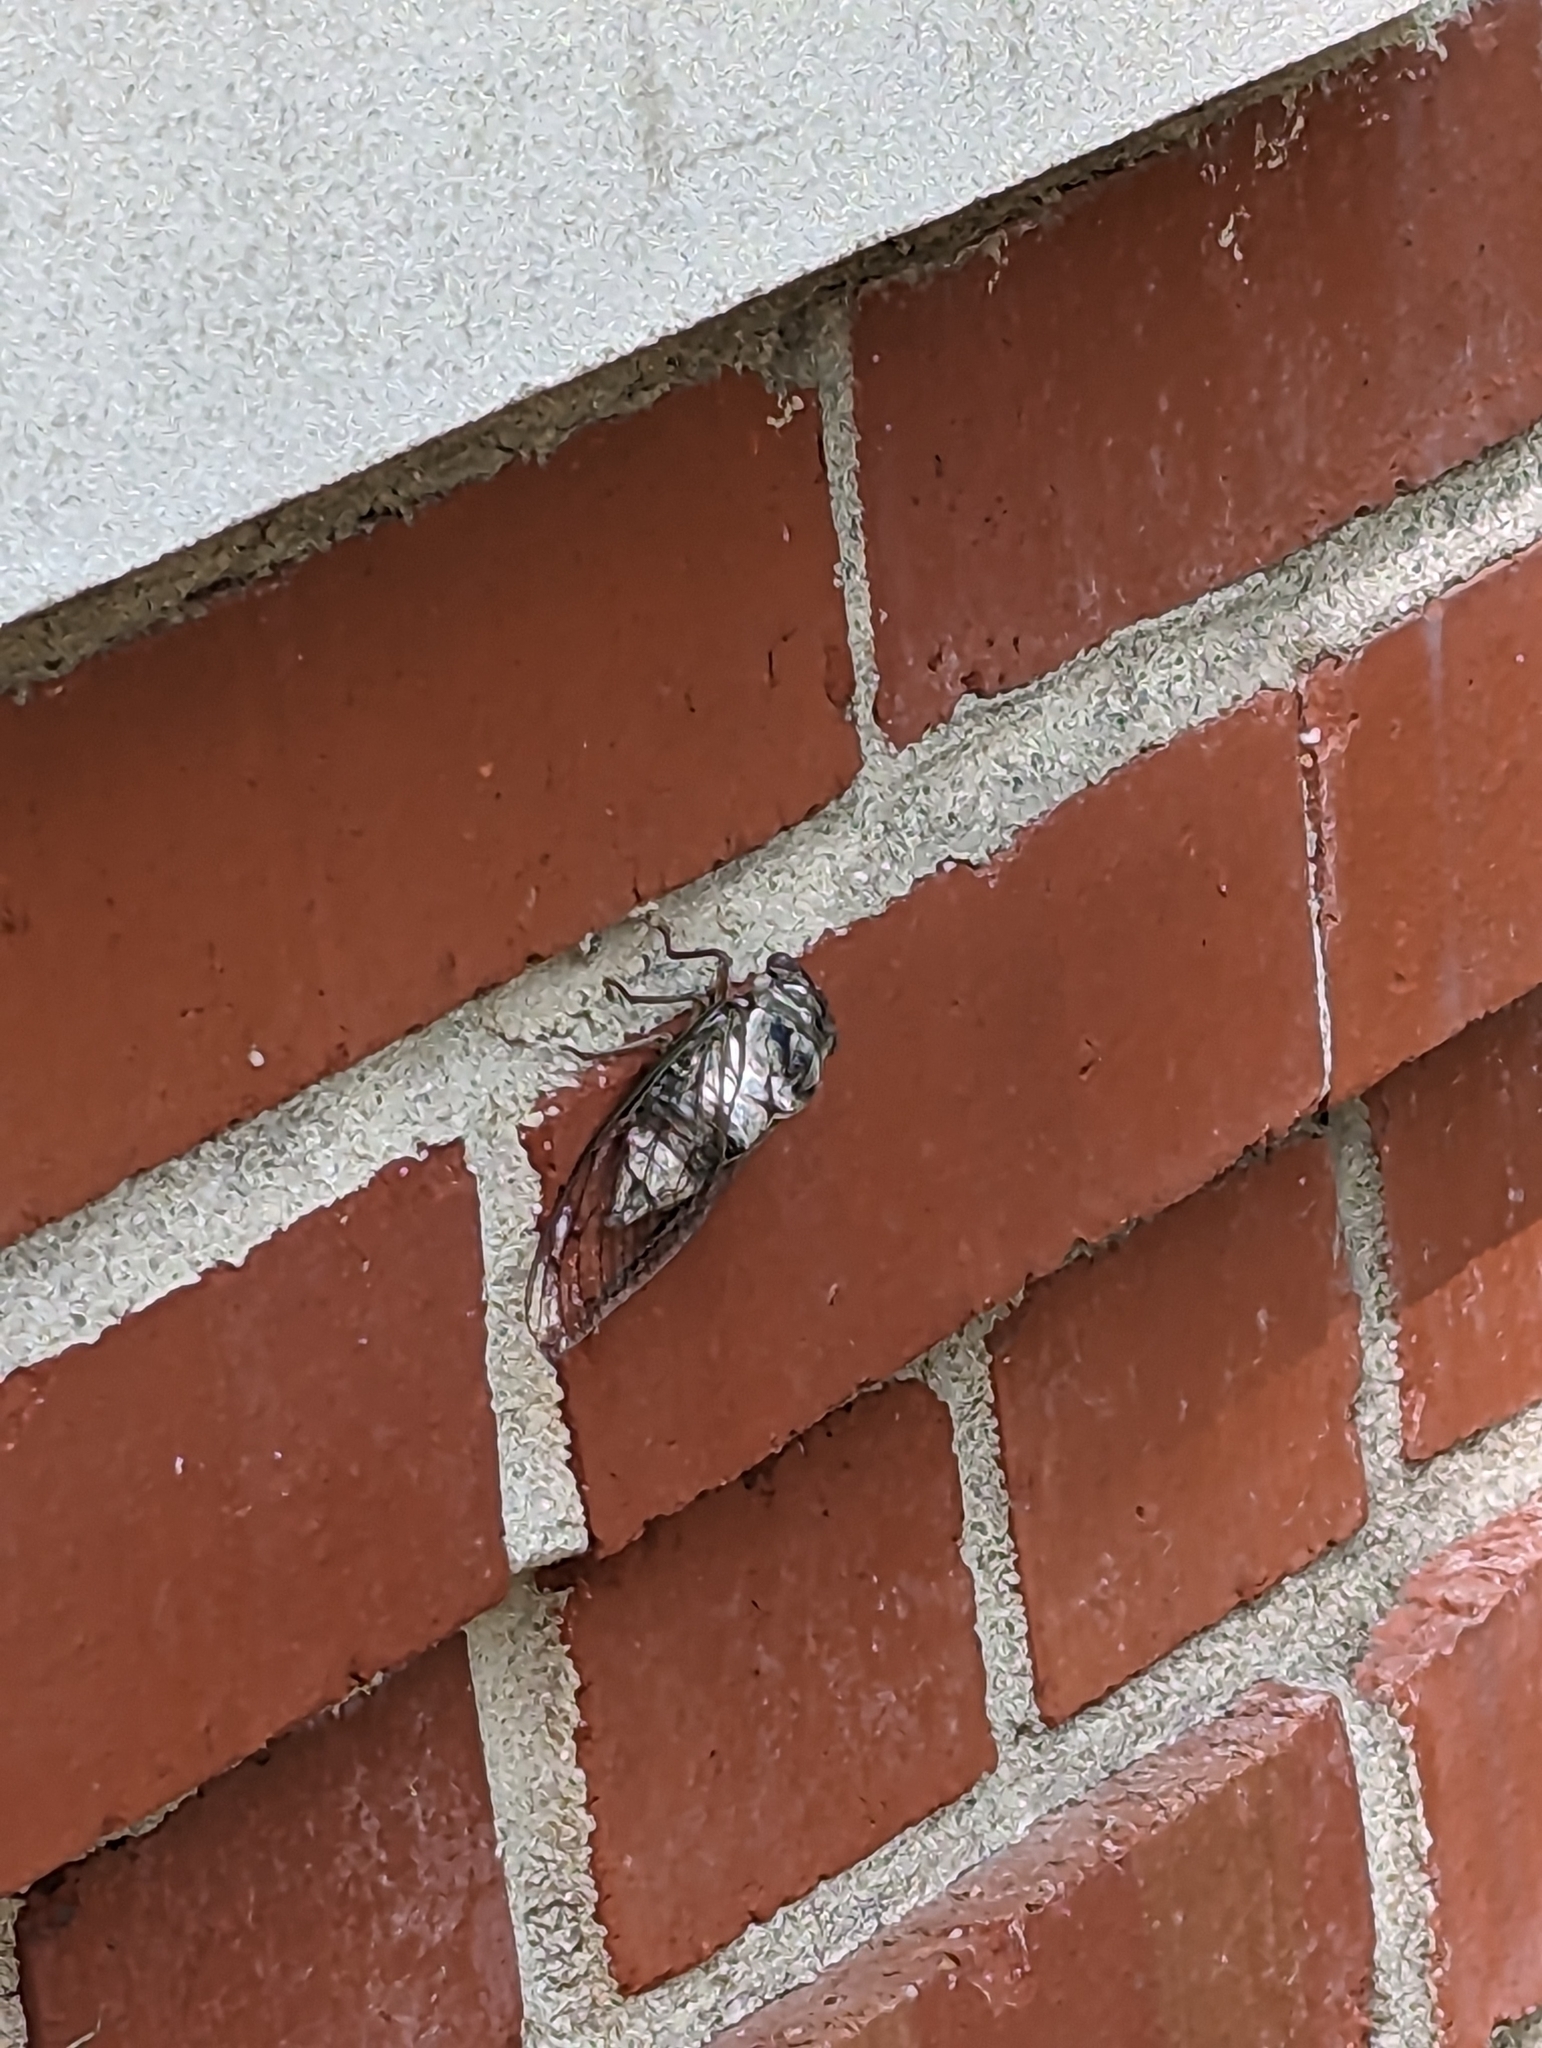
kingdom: Animalia
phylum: Arthropoda
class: Insecta
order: Hemiptera
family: Cicadidae
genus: Diceroprocta
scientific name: Diceroprocta grossa
